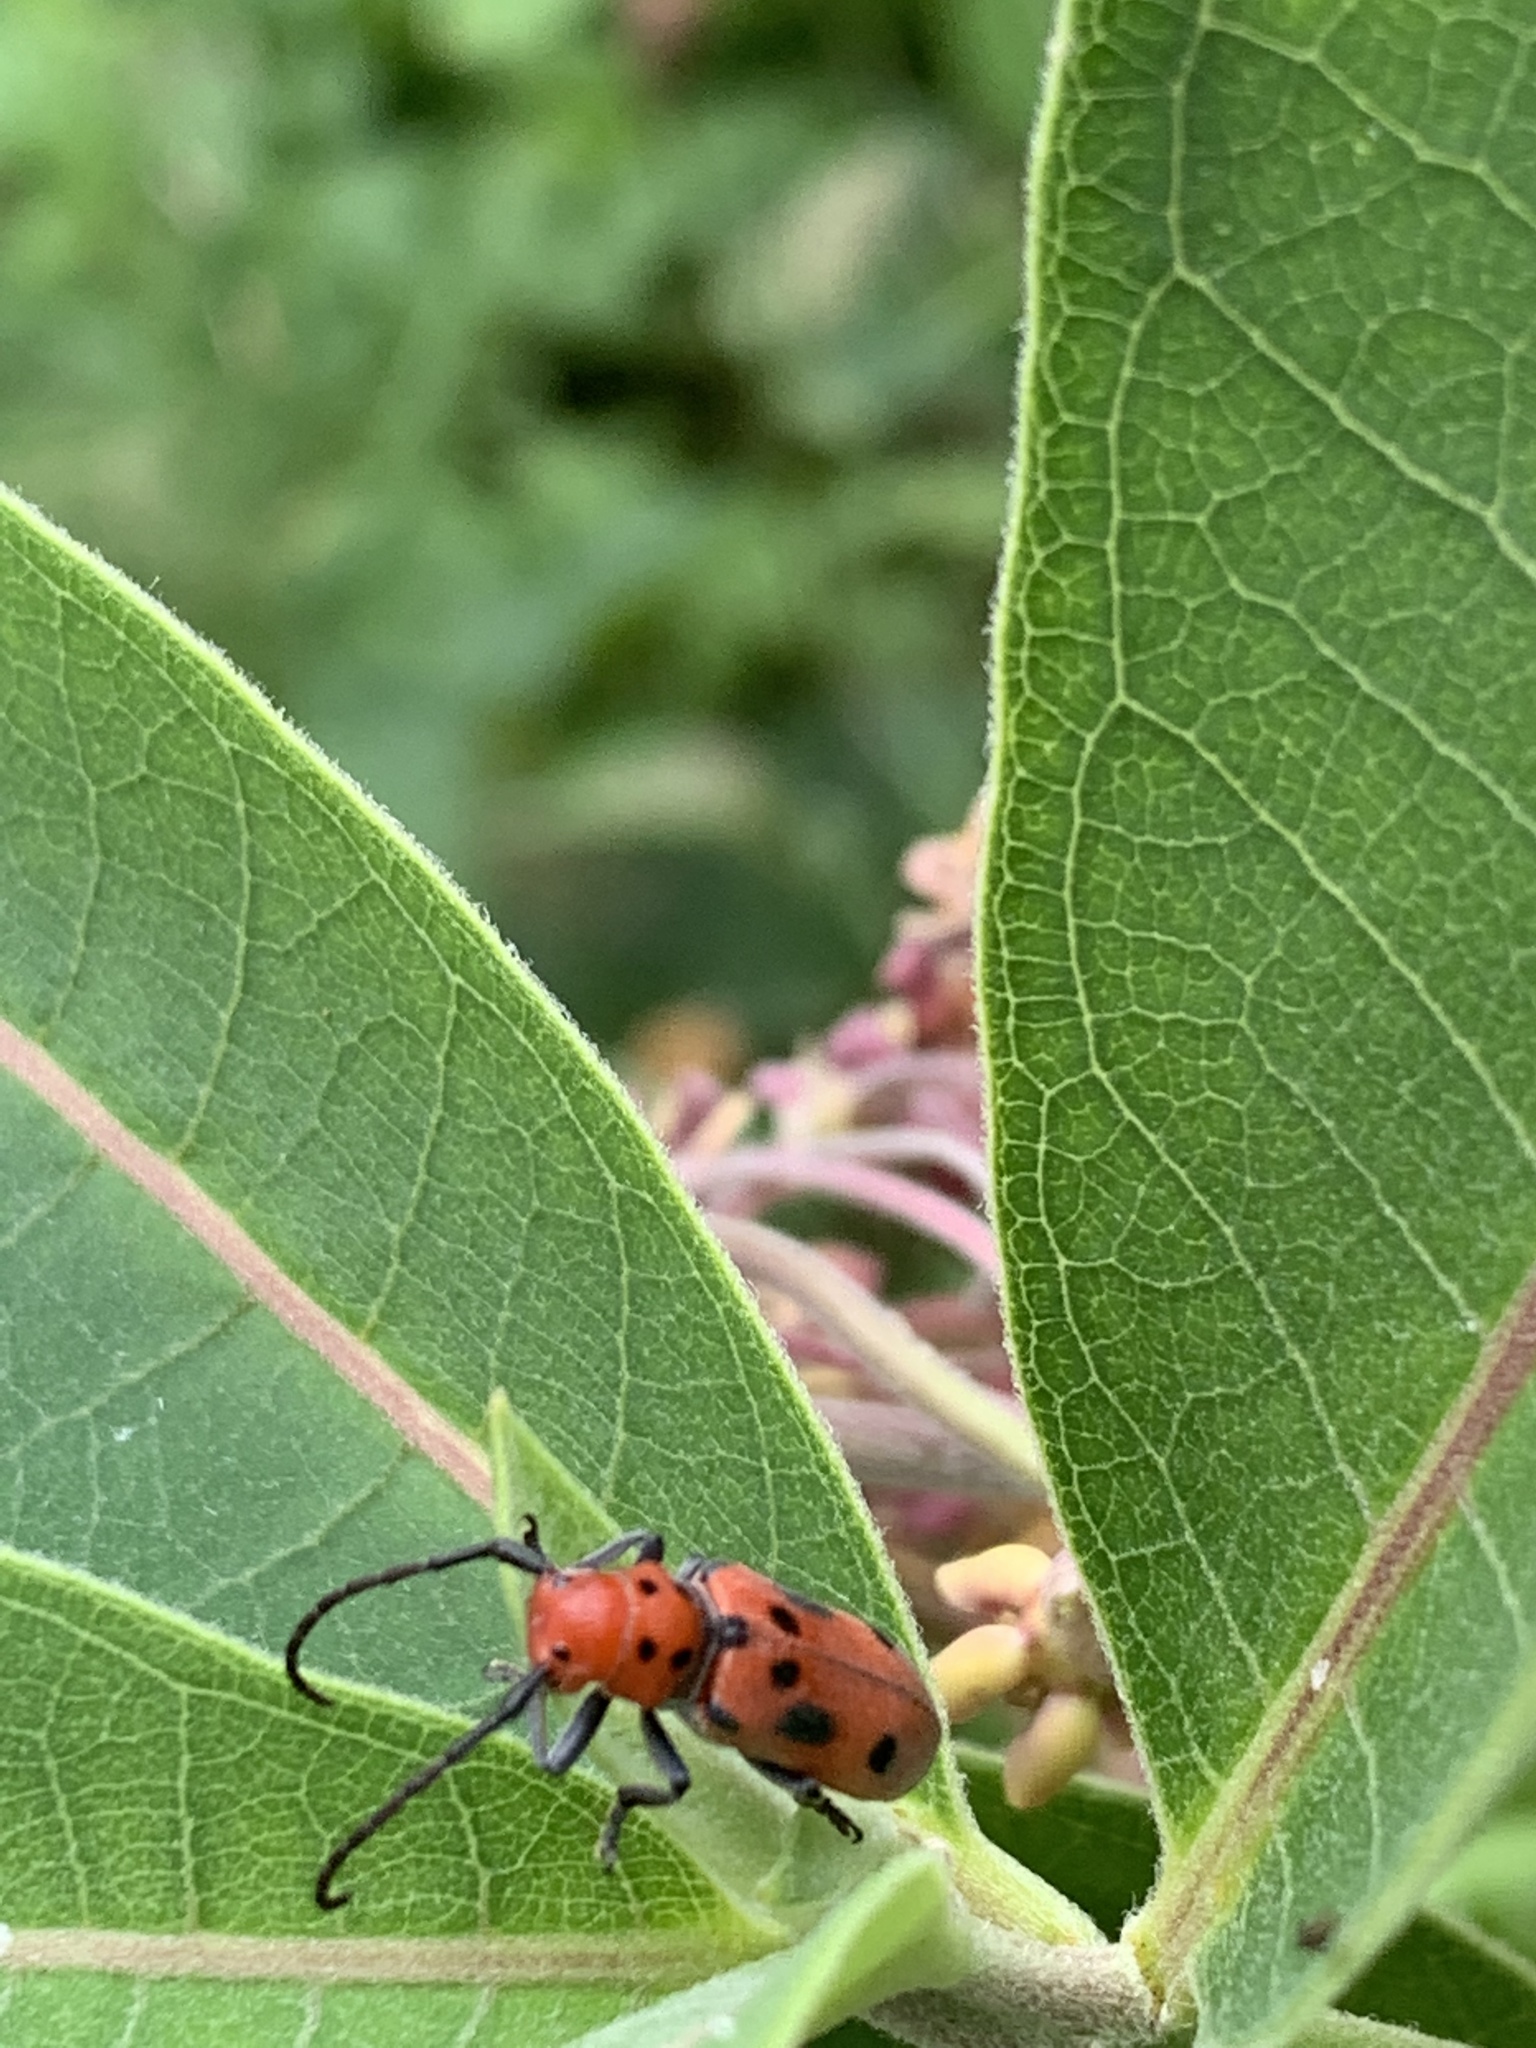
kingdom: Animalia
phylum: Arthropoda
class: Insecta
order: Coleoptera
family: Cerambycidae
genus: Tetraopes
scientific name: Tetraopes tetrophthalmus
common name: Red milkweed beetle
